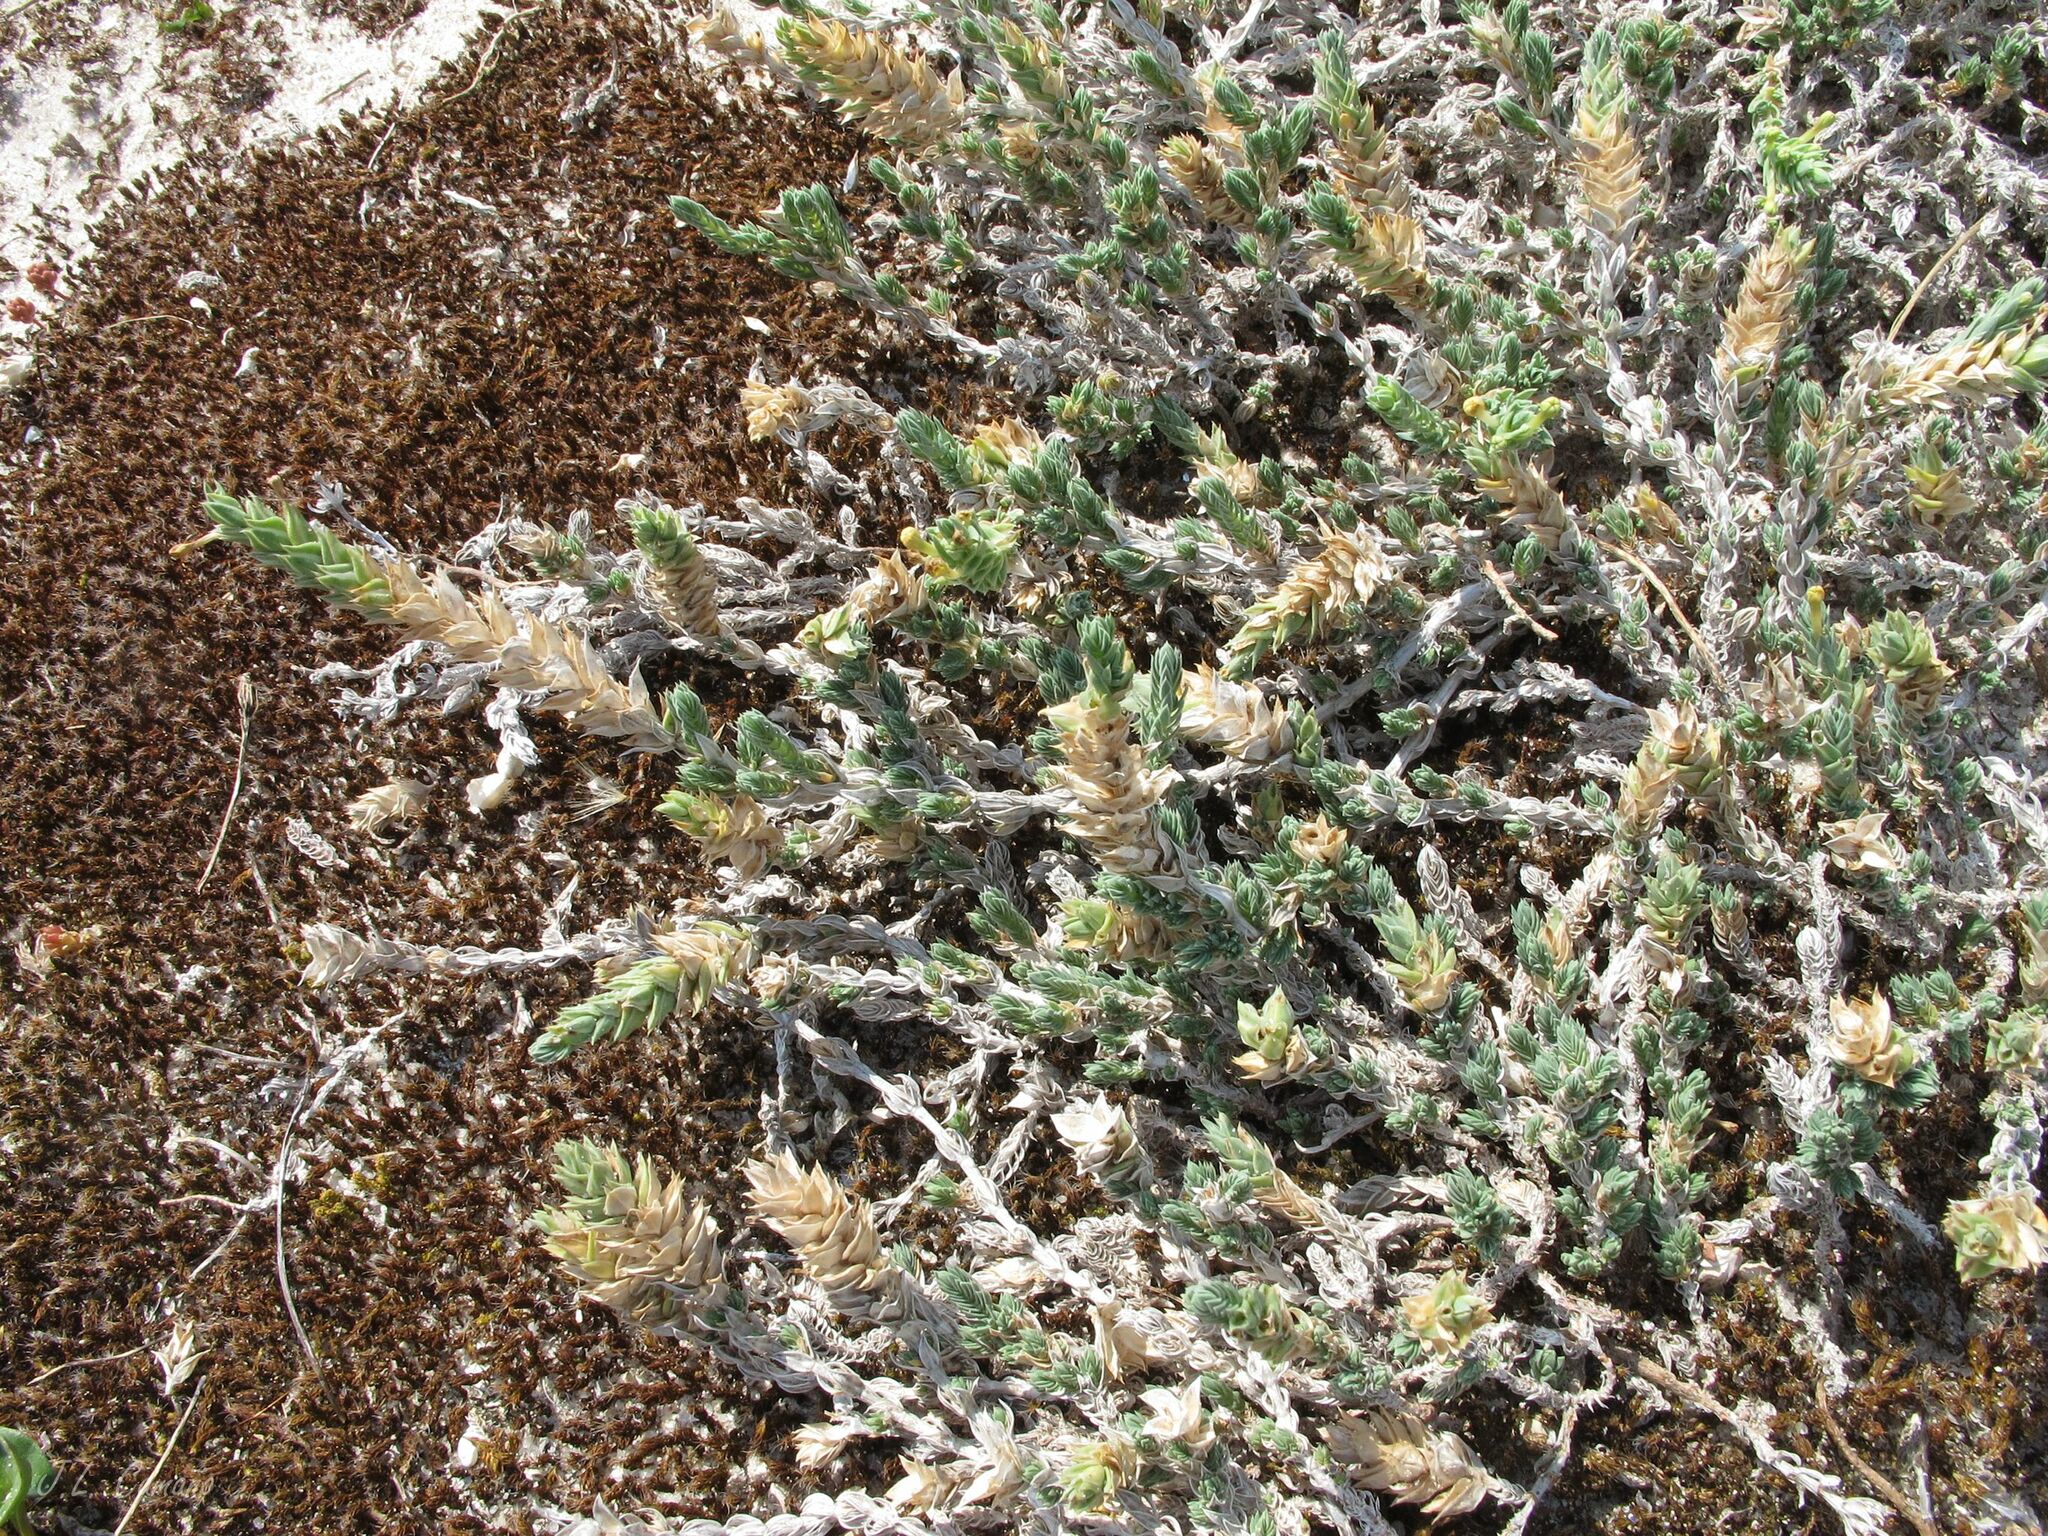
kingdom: Plantae
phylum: Tracheophyta
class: Magnoliopsida
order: Gentianales
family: Rubiaceae
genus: Crucianella
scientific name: Crucianella maritima
